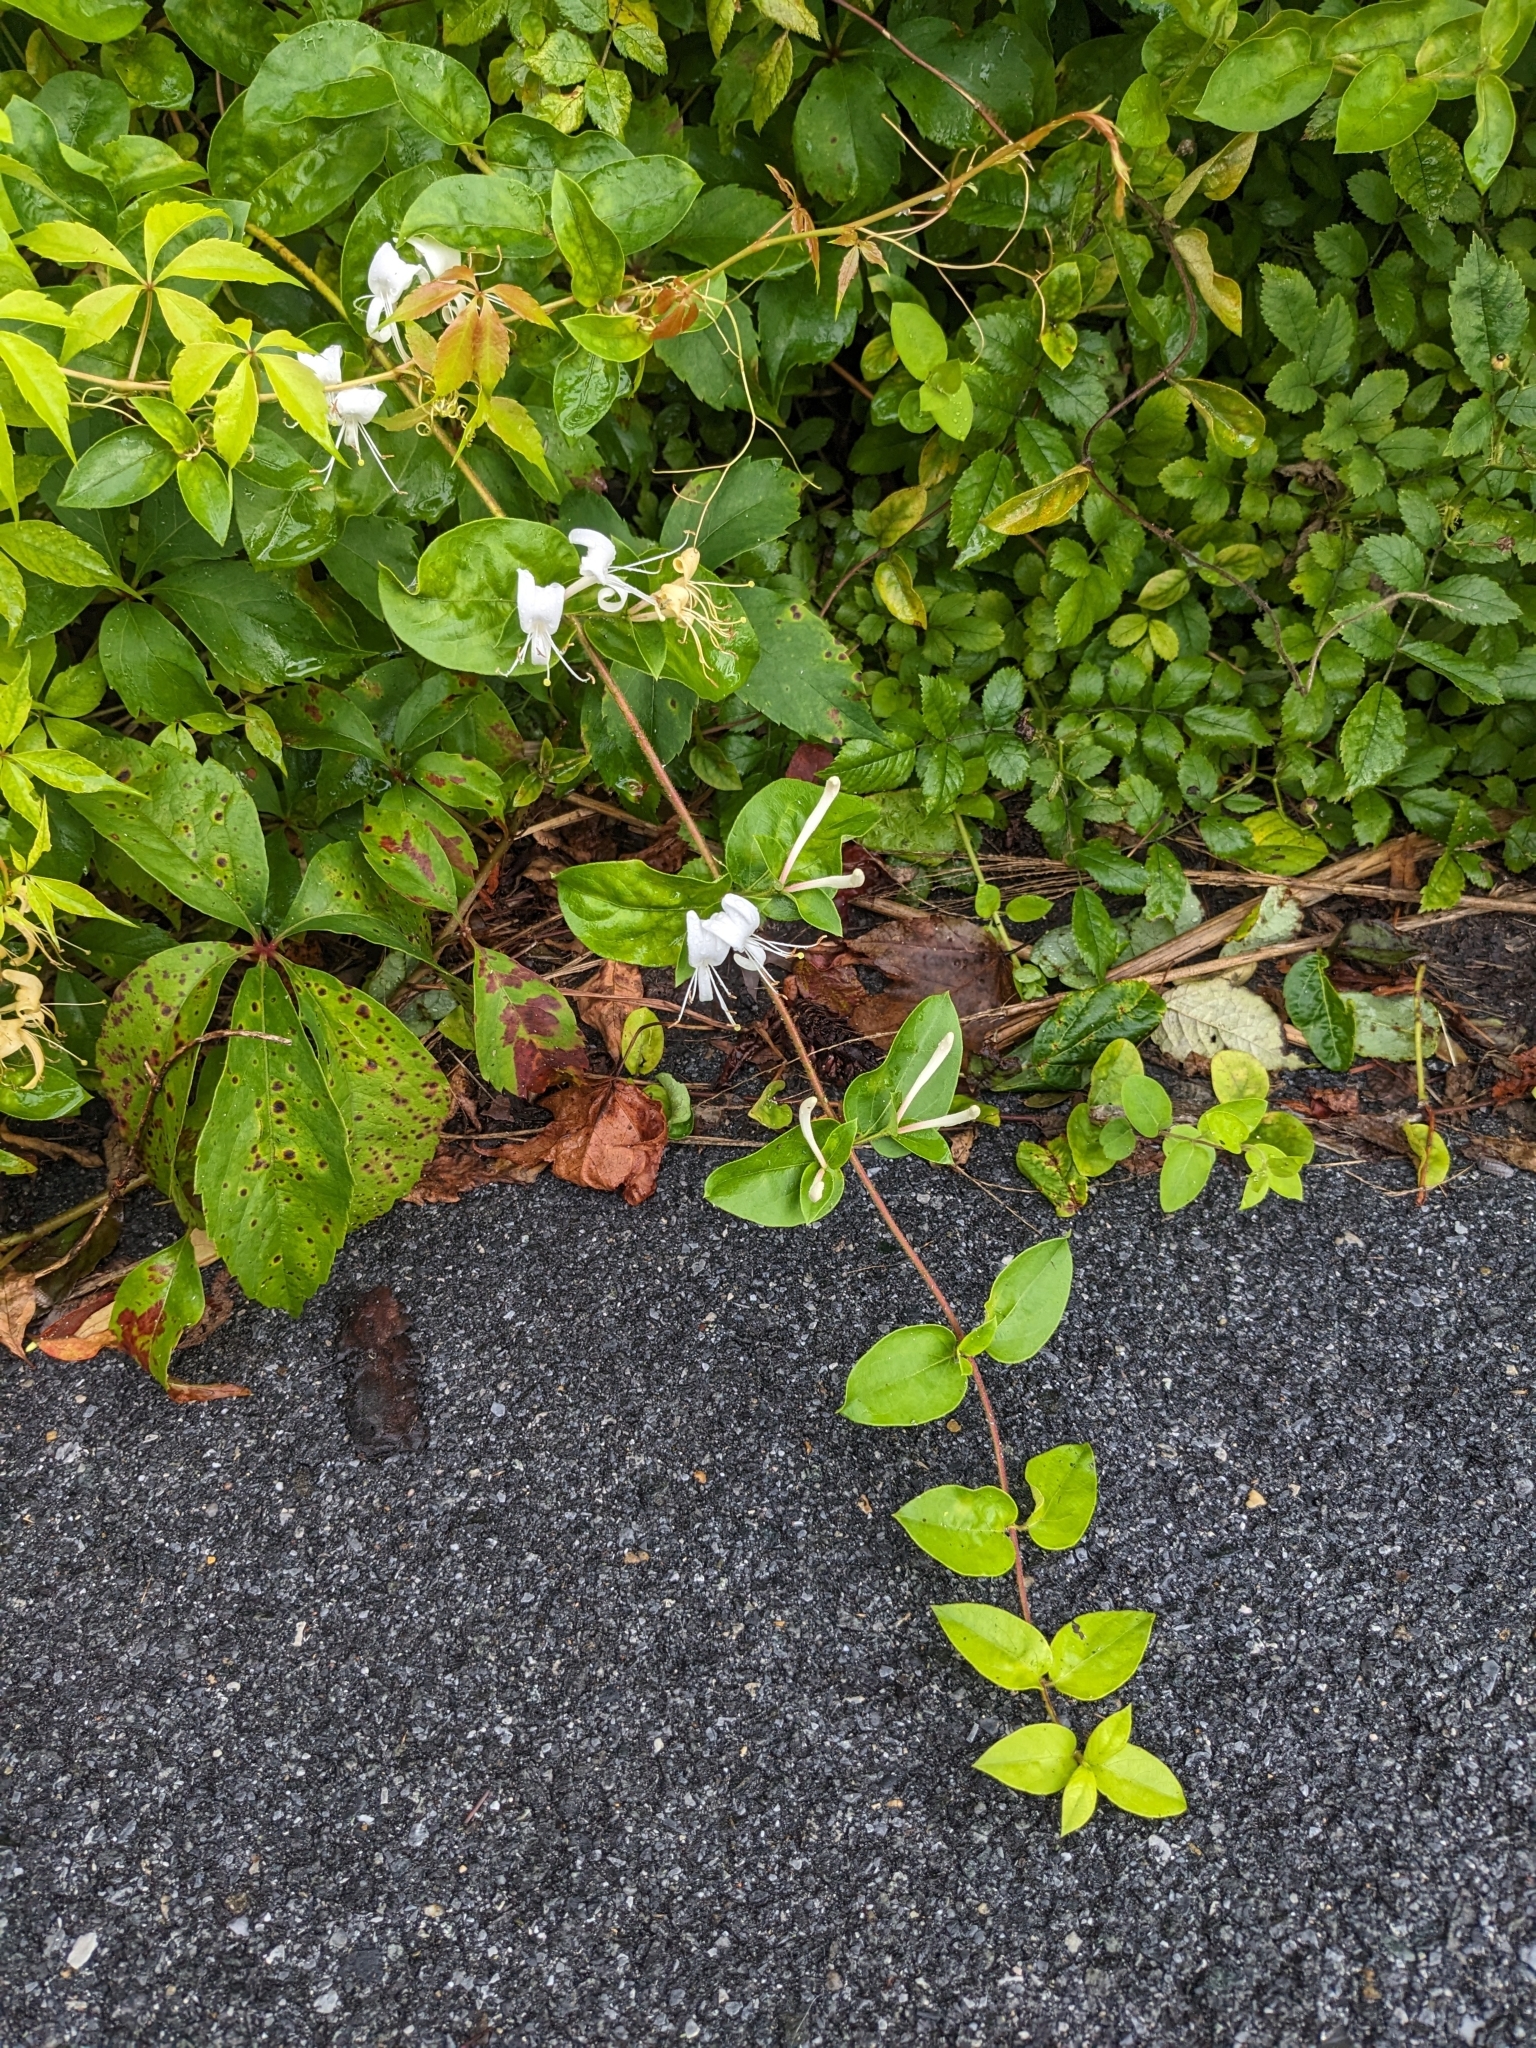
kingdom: Plantae
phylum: Tracheophyta
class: Magnoliopsida
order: Dipsacales
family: Caprifoliaceae
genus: Lonicera
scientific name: Lonicera japonica
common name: Japanese honeysuckle
